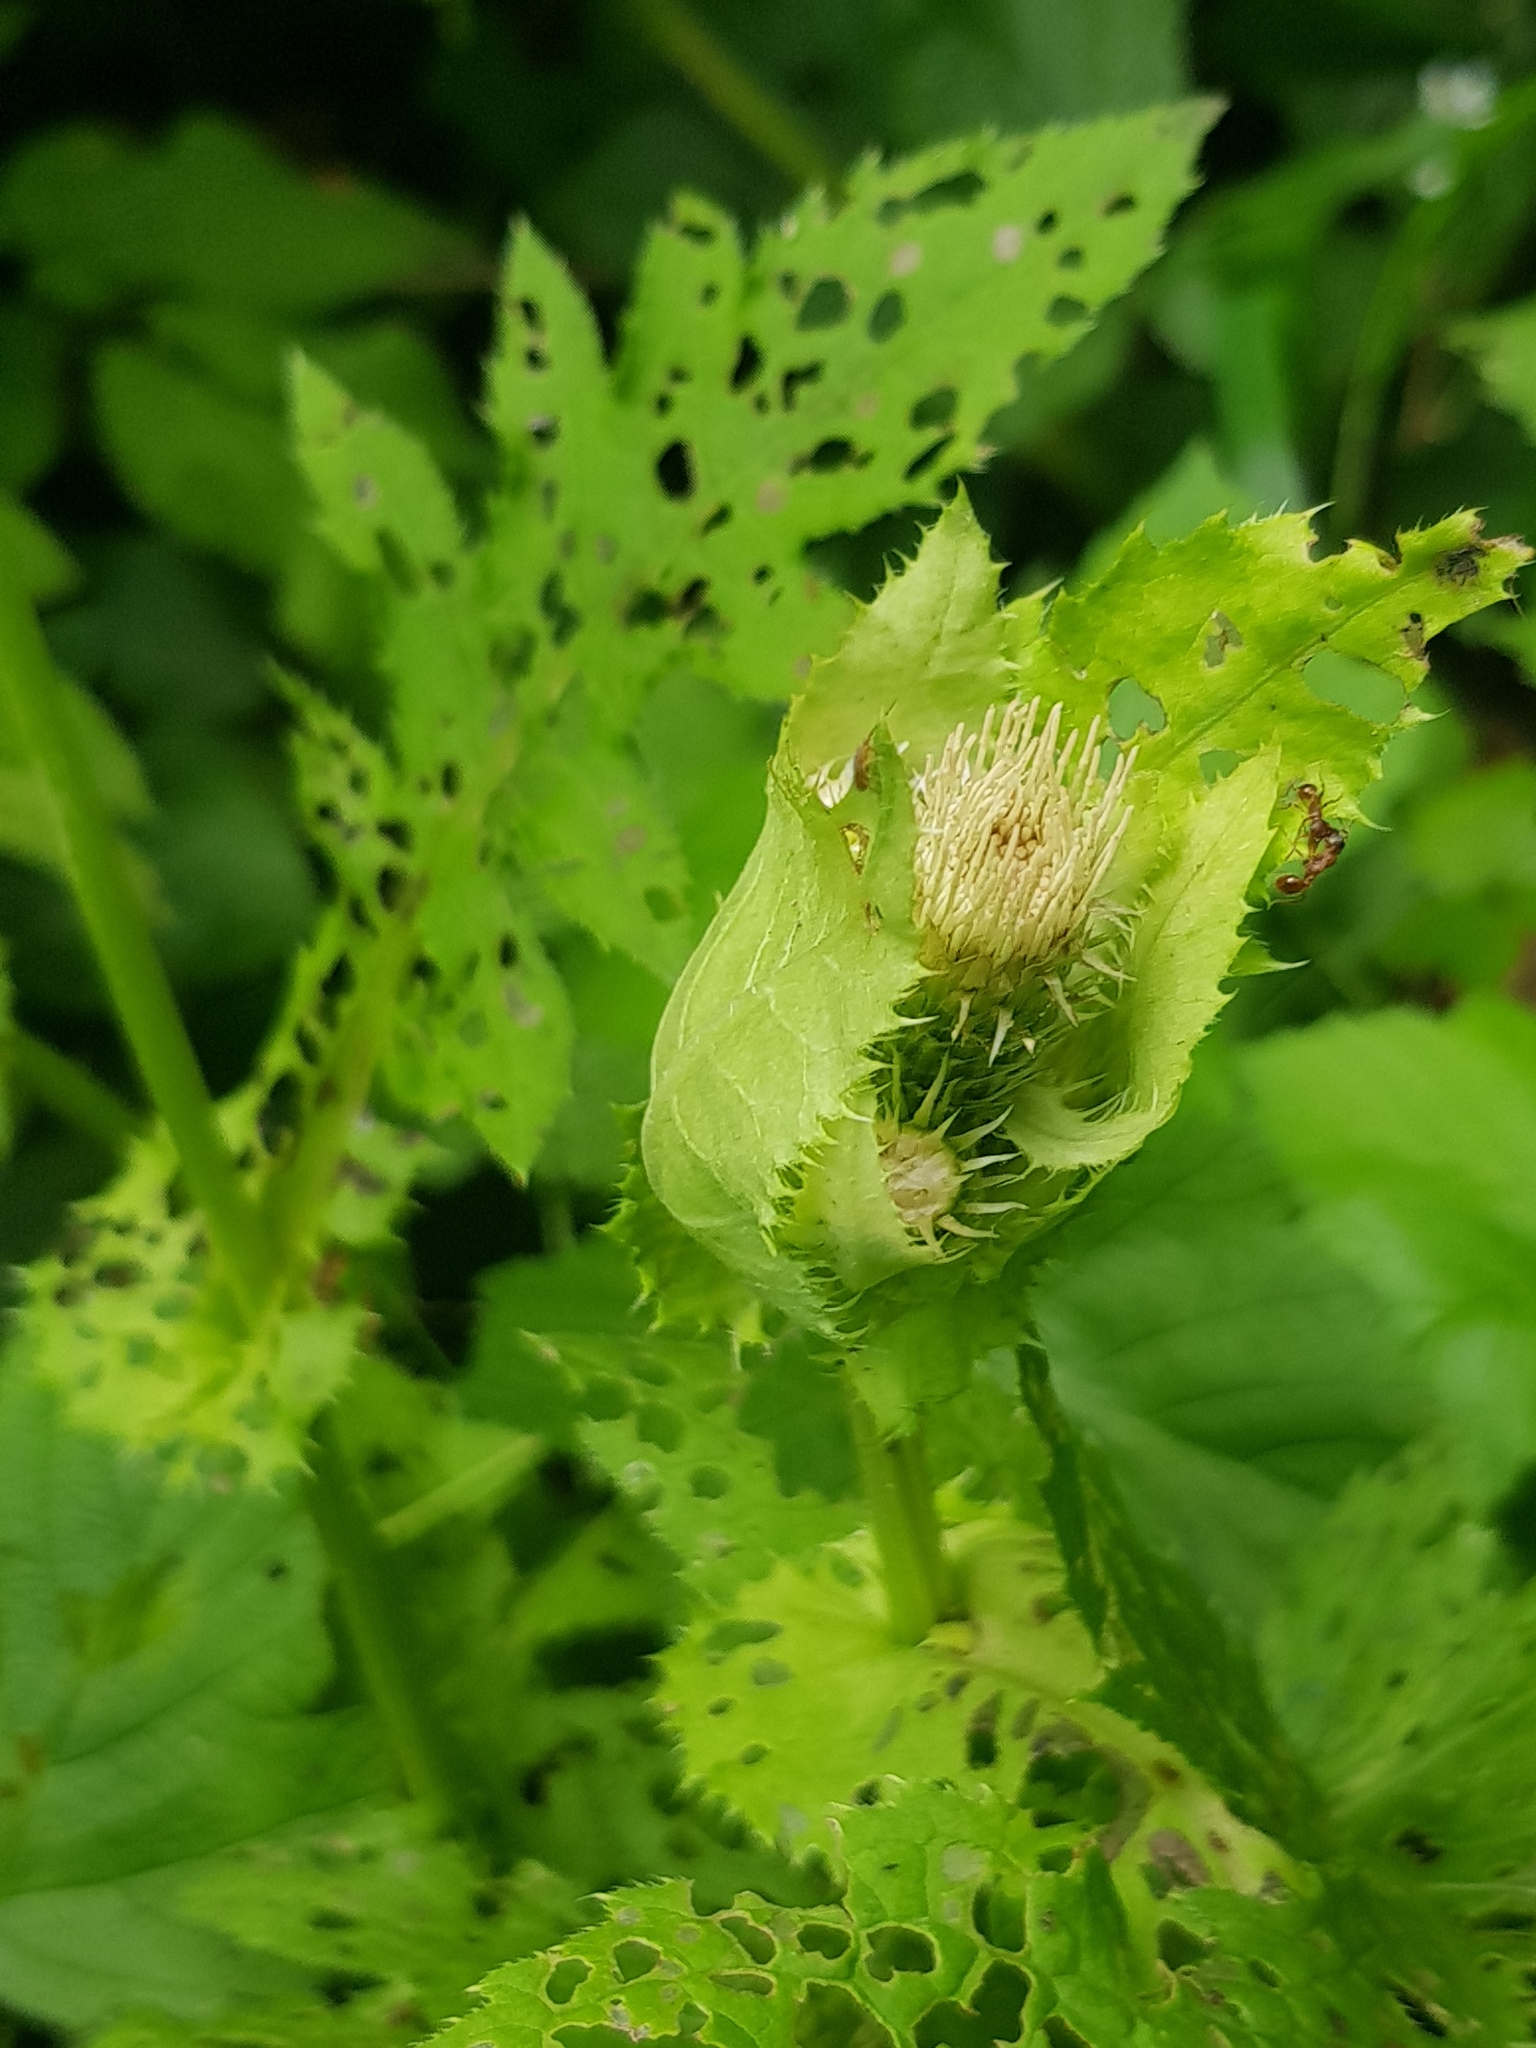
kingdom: Plantae
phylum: Tracheophyta
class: Magnoliopsida
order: Asterales
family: Asteraceae
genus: Cirsium
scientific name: Cirsium oleraceum
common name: Cabbage thistle
